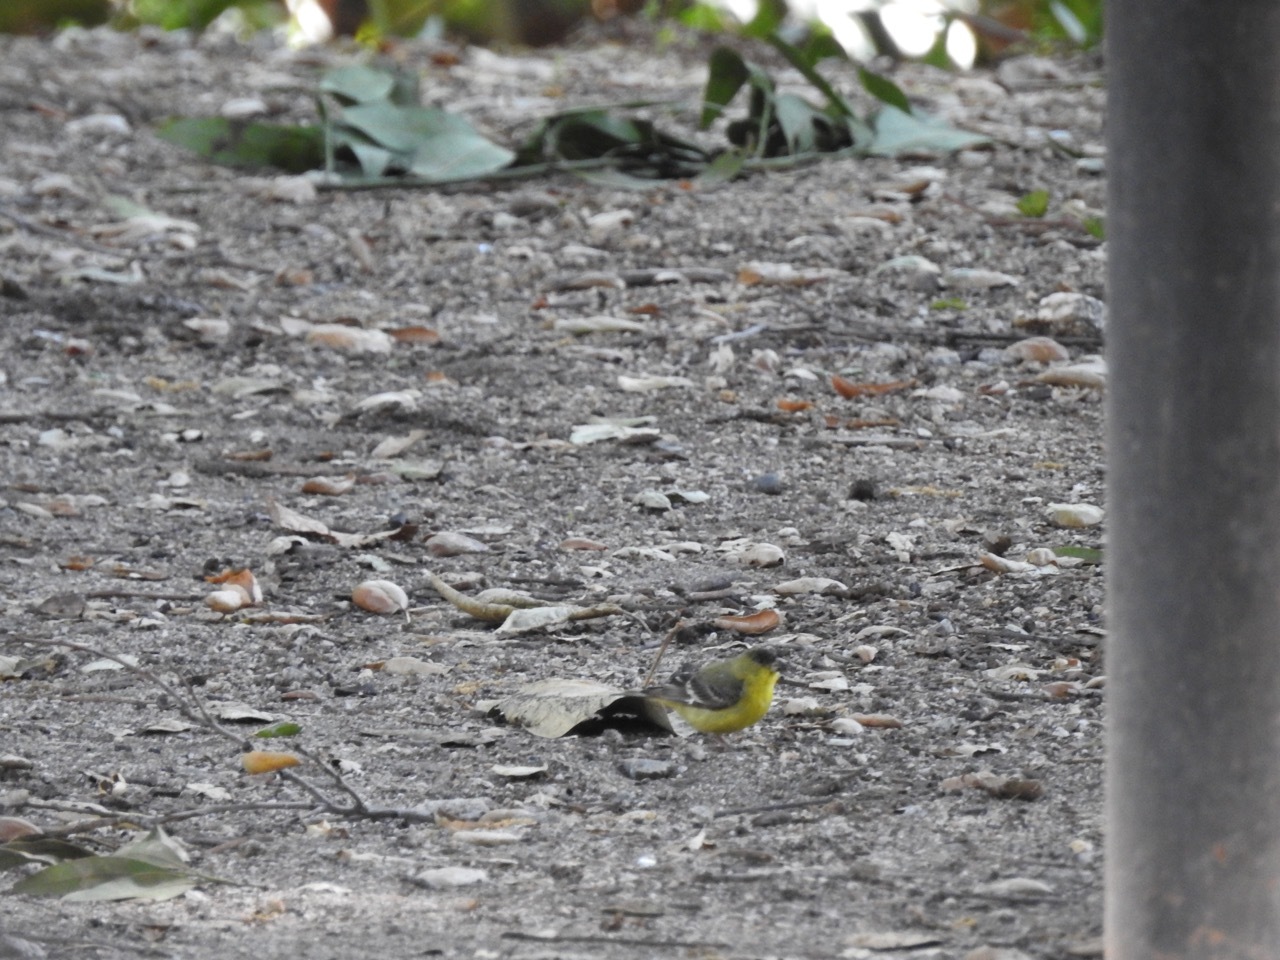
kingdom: Animalia
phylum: Chordata
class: Aves
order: Passeriformes
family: Fringillidae
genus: Spinus
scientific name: Spinus psaltria
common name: Lesser goldfinch
